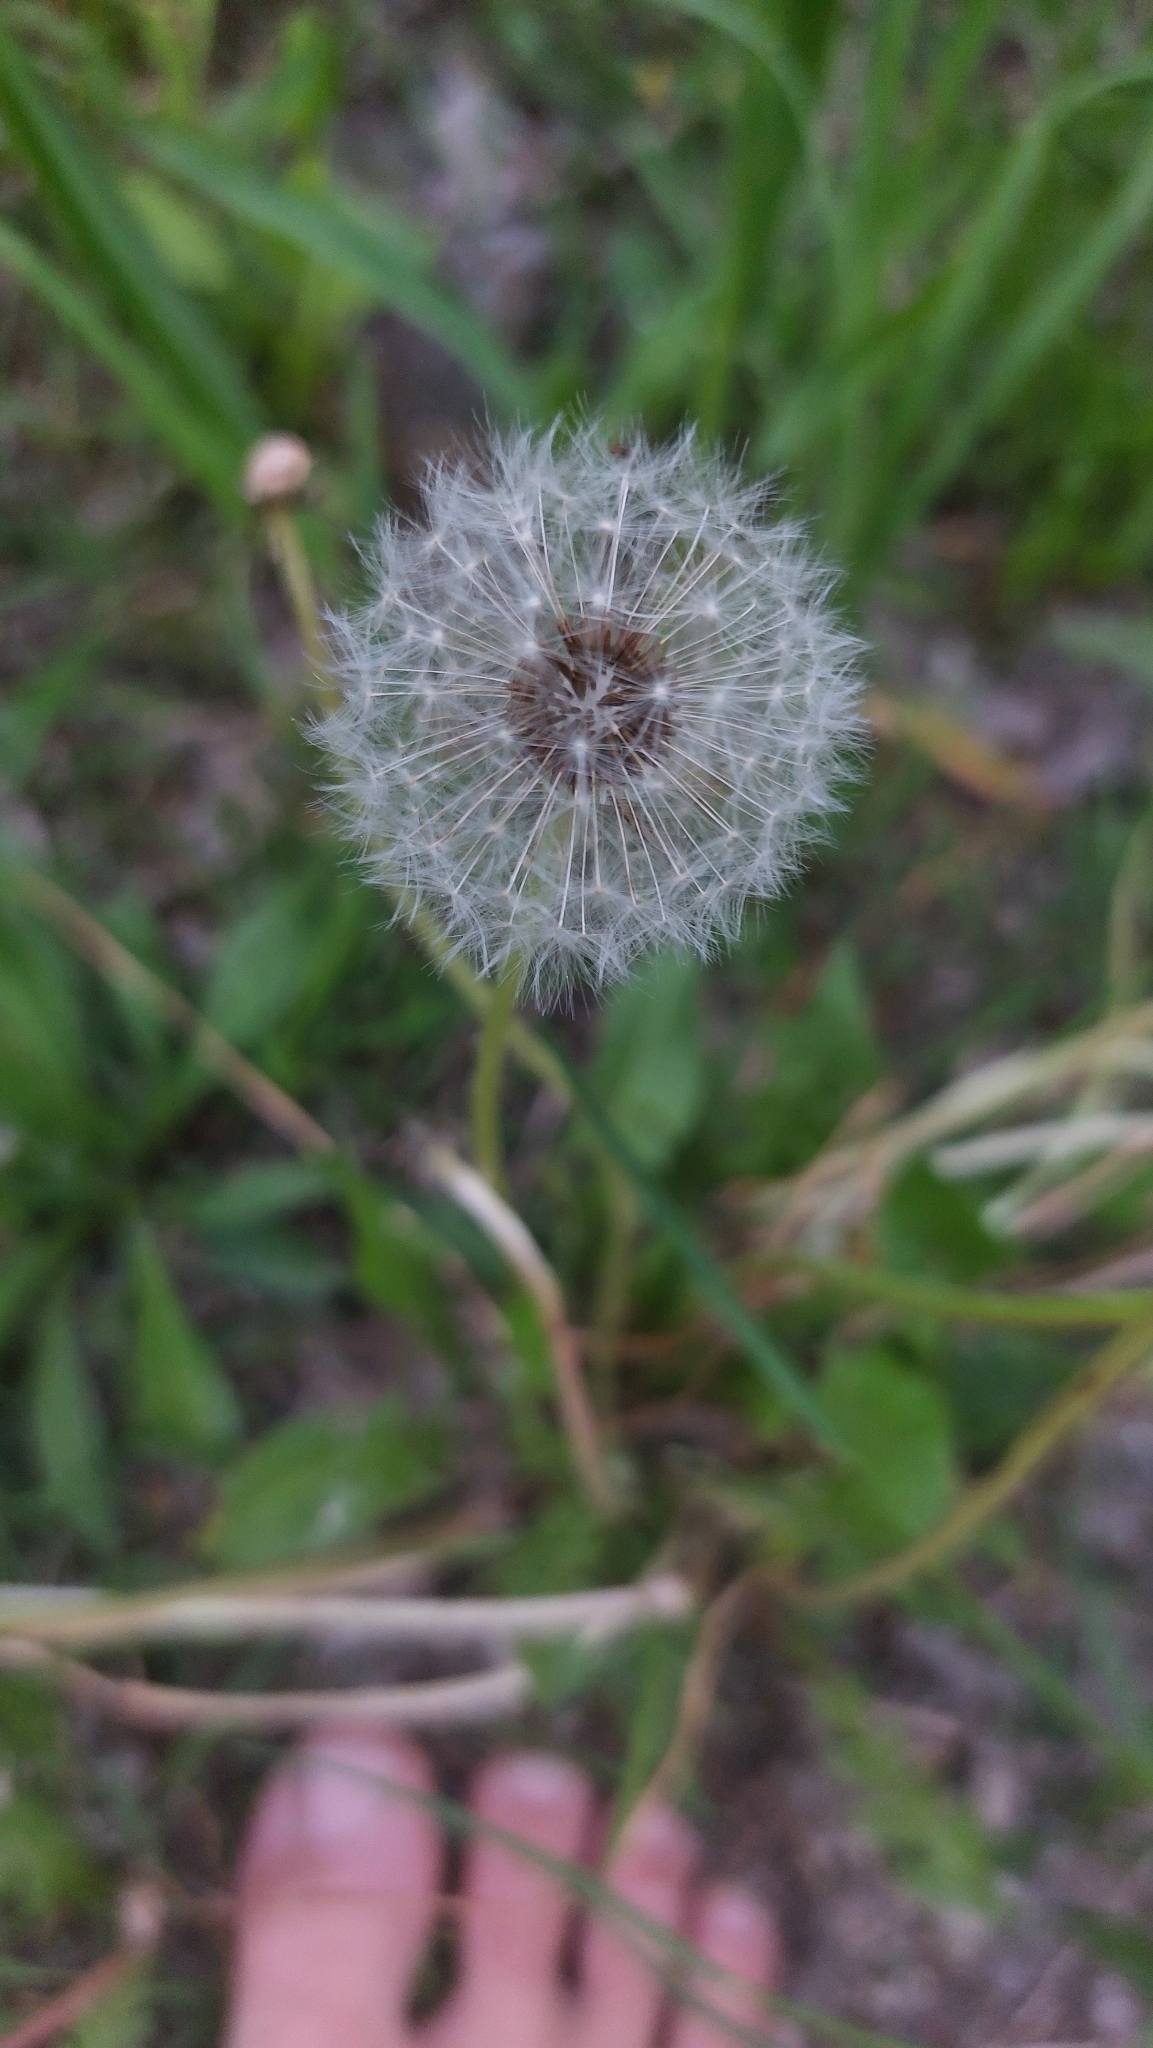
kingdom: Plantae
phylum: Tracheophyta
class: Magnoliopsida
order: Asterales
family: Asteraceae
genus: Taraxacum
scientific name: Taraxacum
